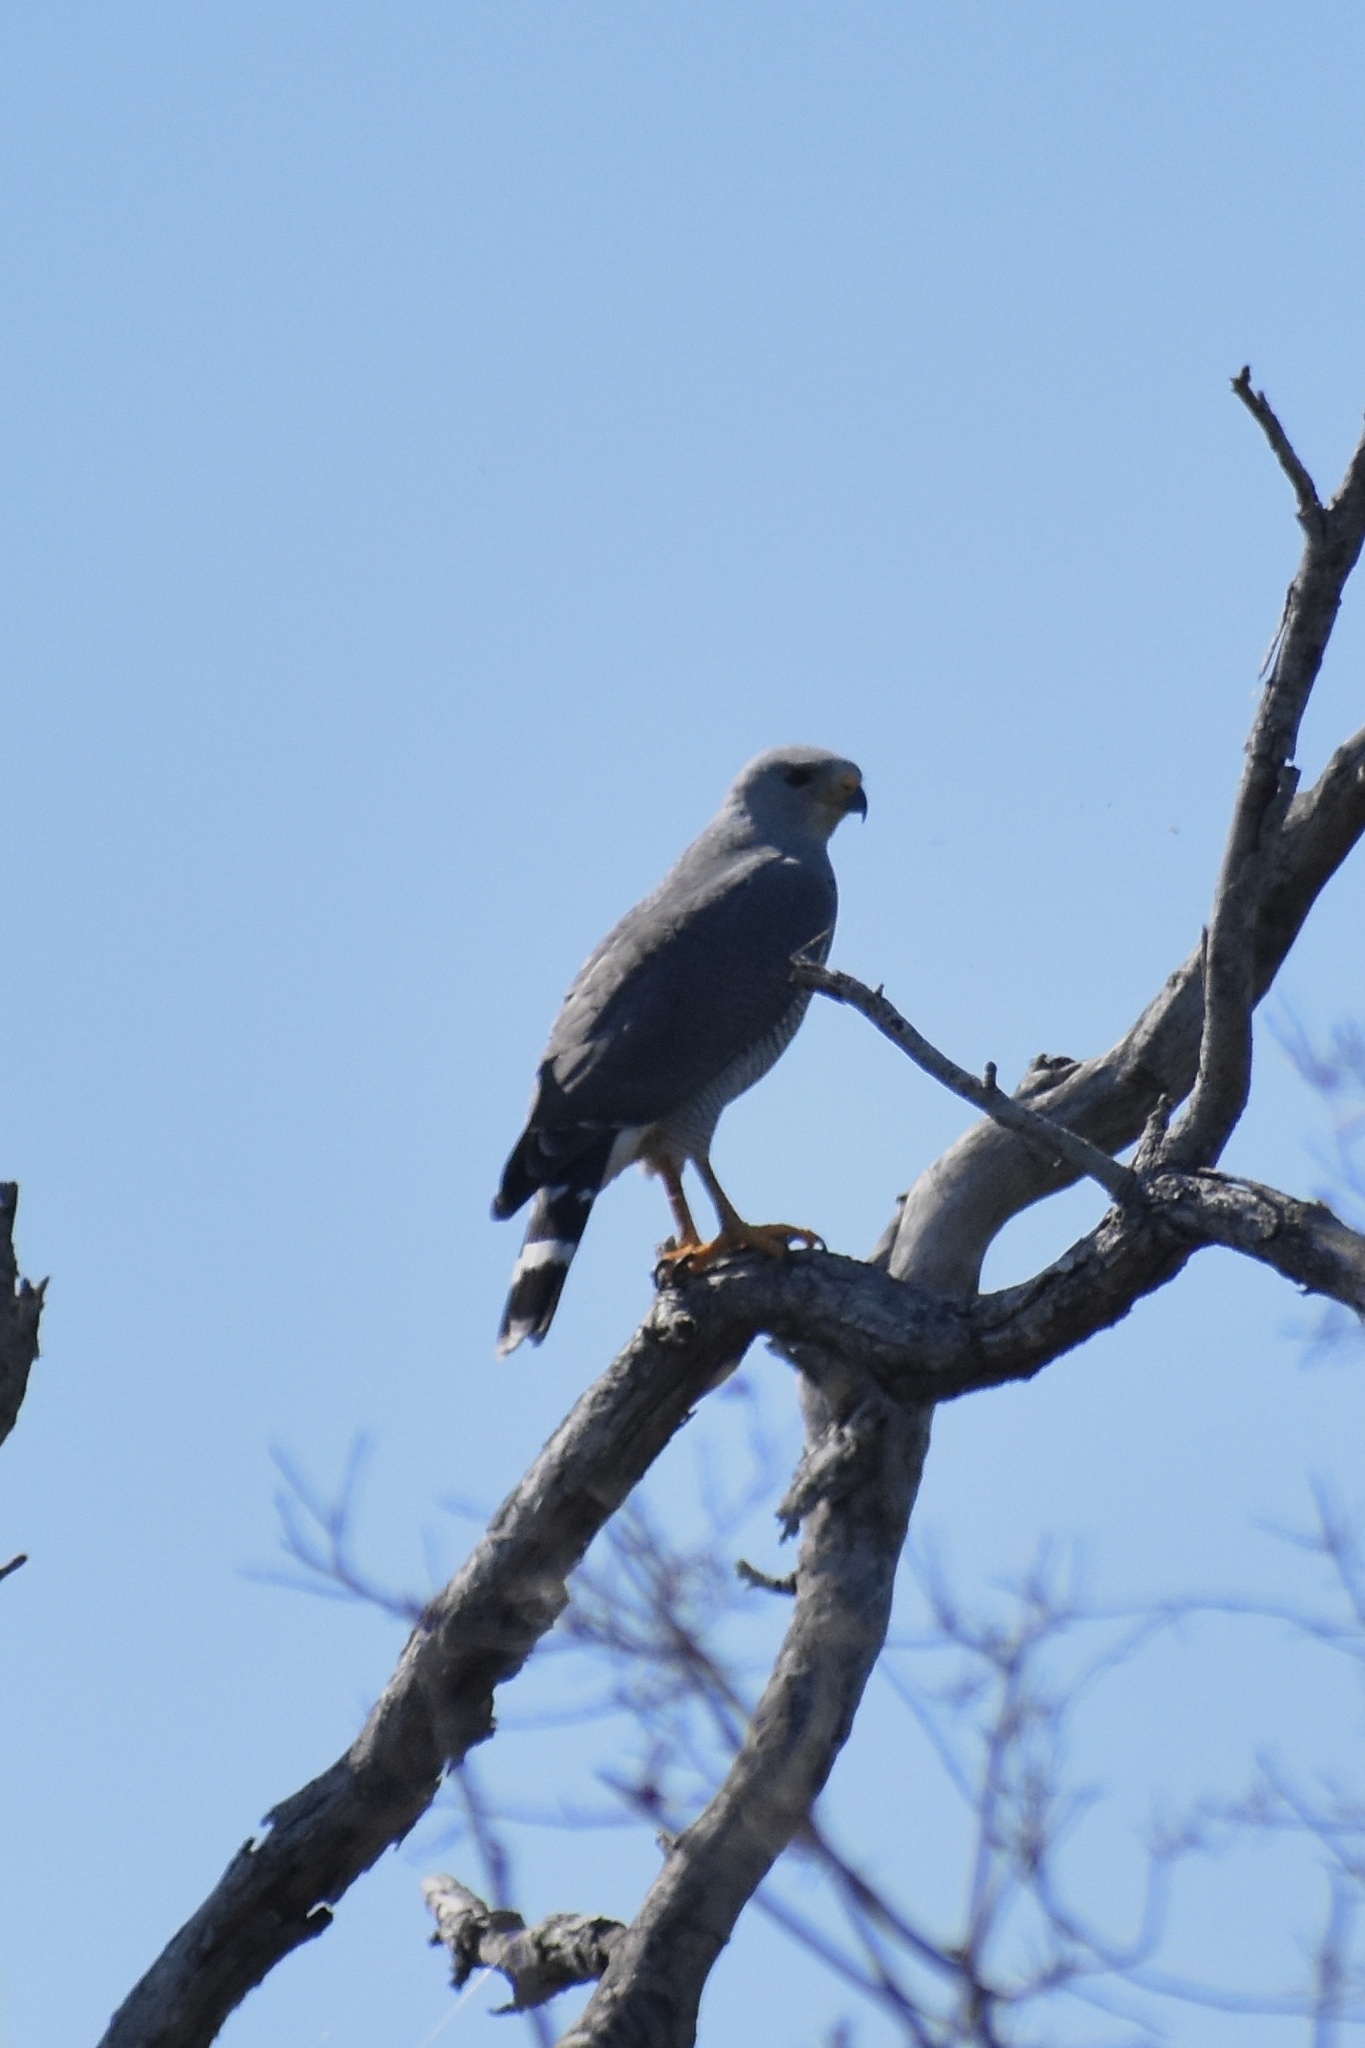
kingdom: Animalia
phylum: Chordata
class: Aves
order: Accipitriformes
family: Accipitridae
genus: Buteo
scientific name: Buteo nitidus
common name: Grey-lined hawk
